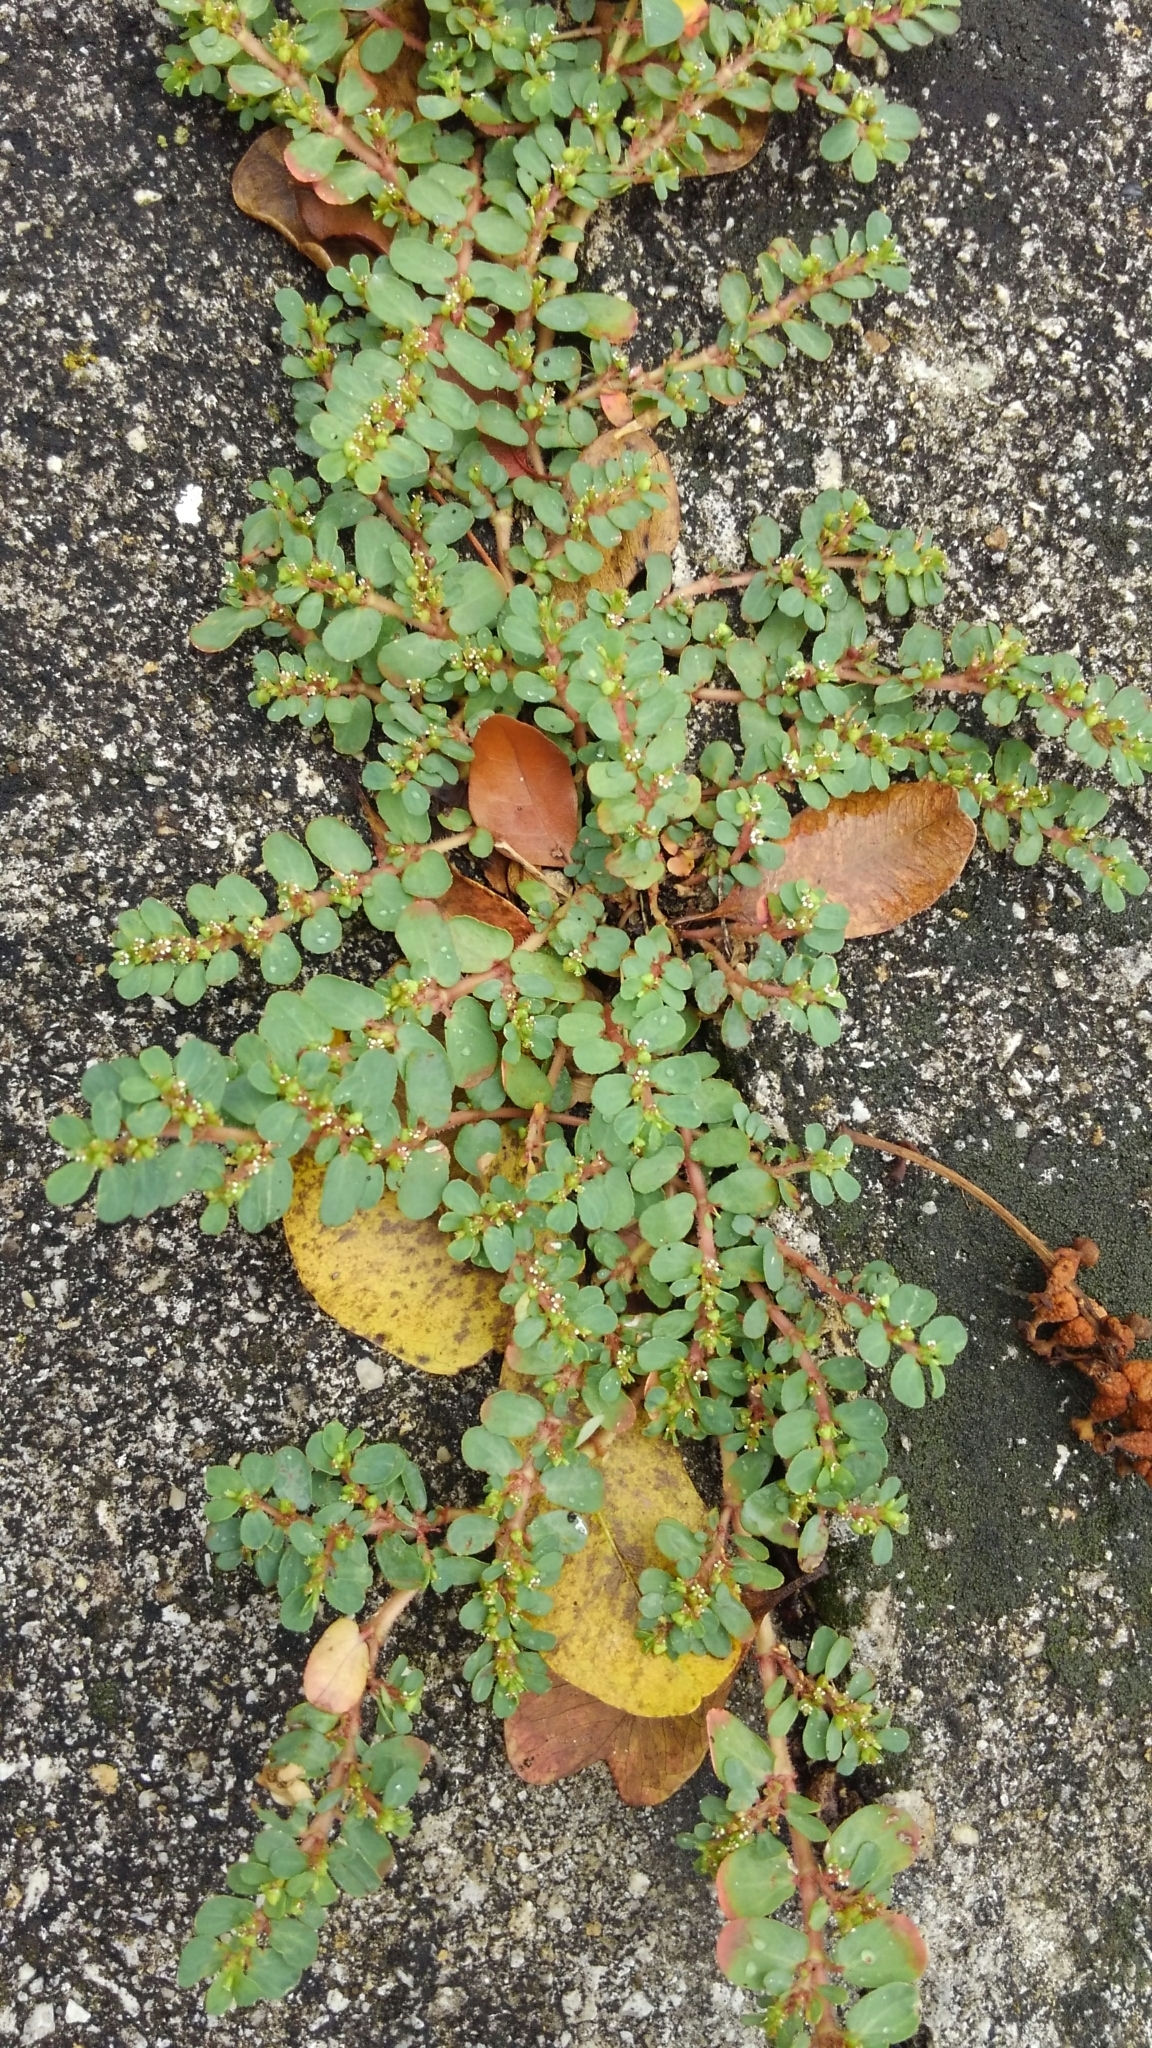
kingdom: Plantae
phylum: Tracheophyta
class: Magnoliopsida
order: Malpighiales
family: Euphorbiaceae
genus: Euphorbia
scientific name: Euphorbia mendezii
